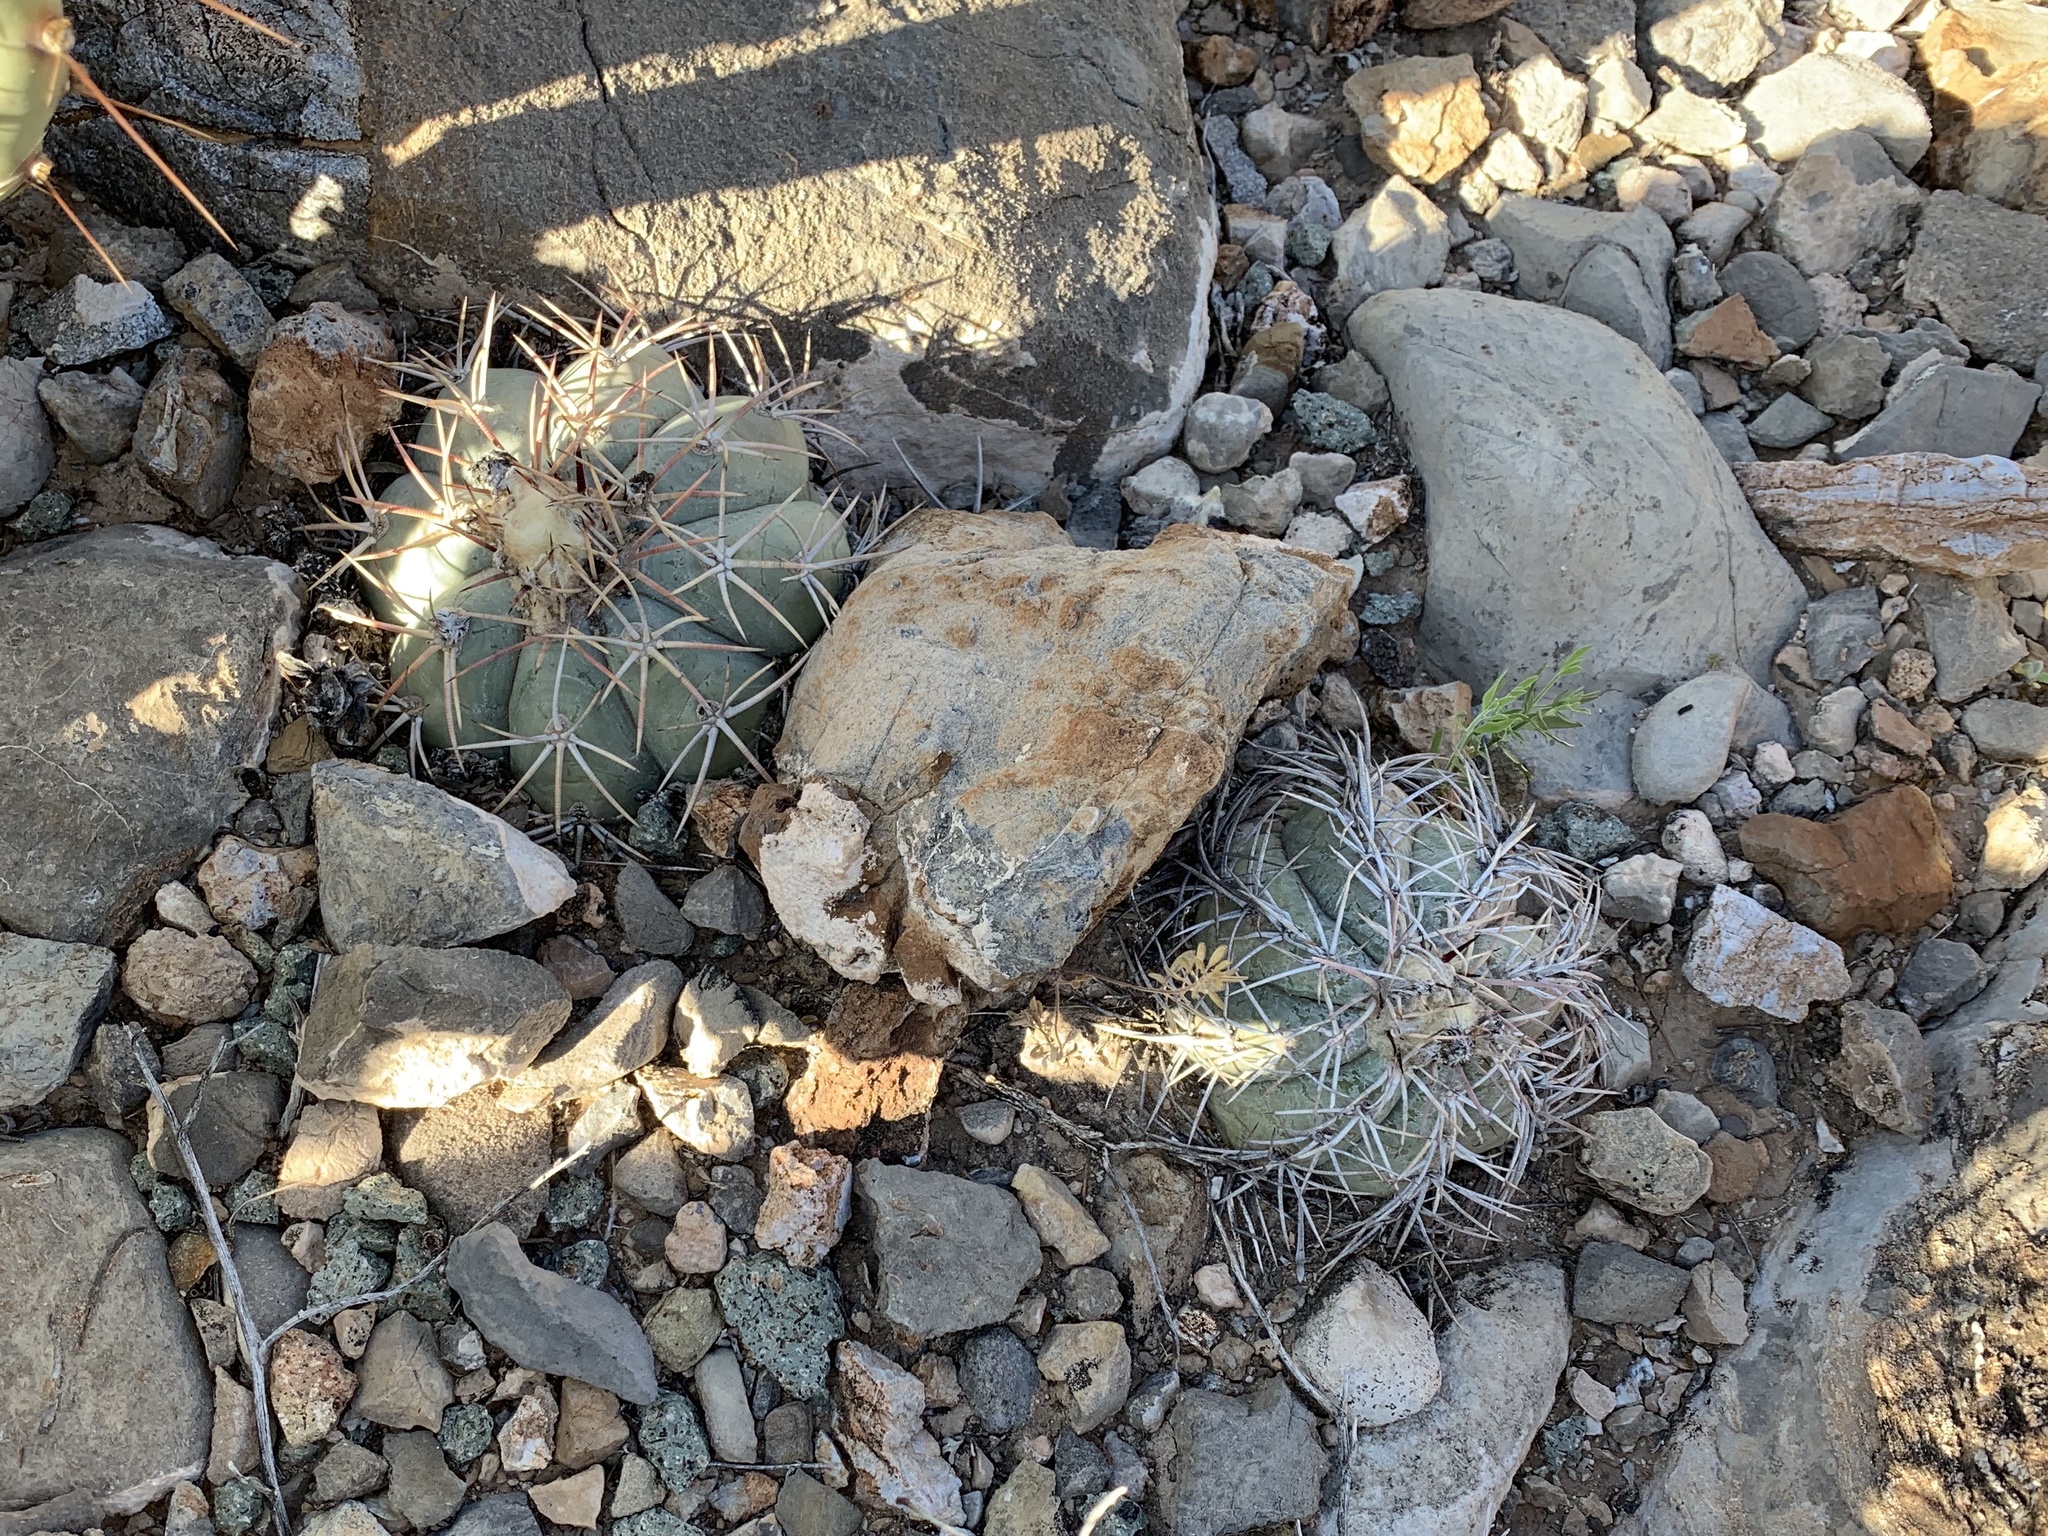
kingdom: Plantae
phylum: Tracheophyta
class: Magnoliopsida
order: Caryophyllales
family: Cactaceae
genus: Echinocactus
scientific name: Echinocactus horizonthalonius
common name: Devilshead
